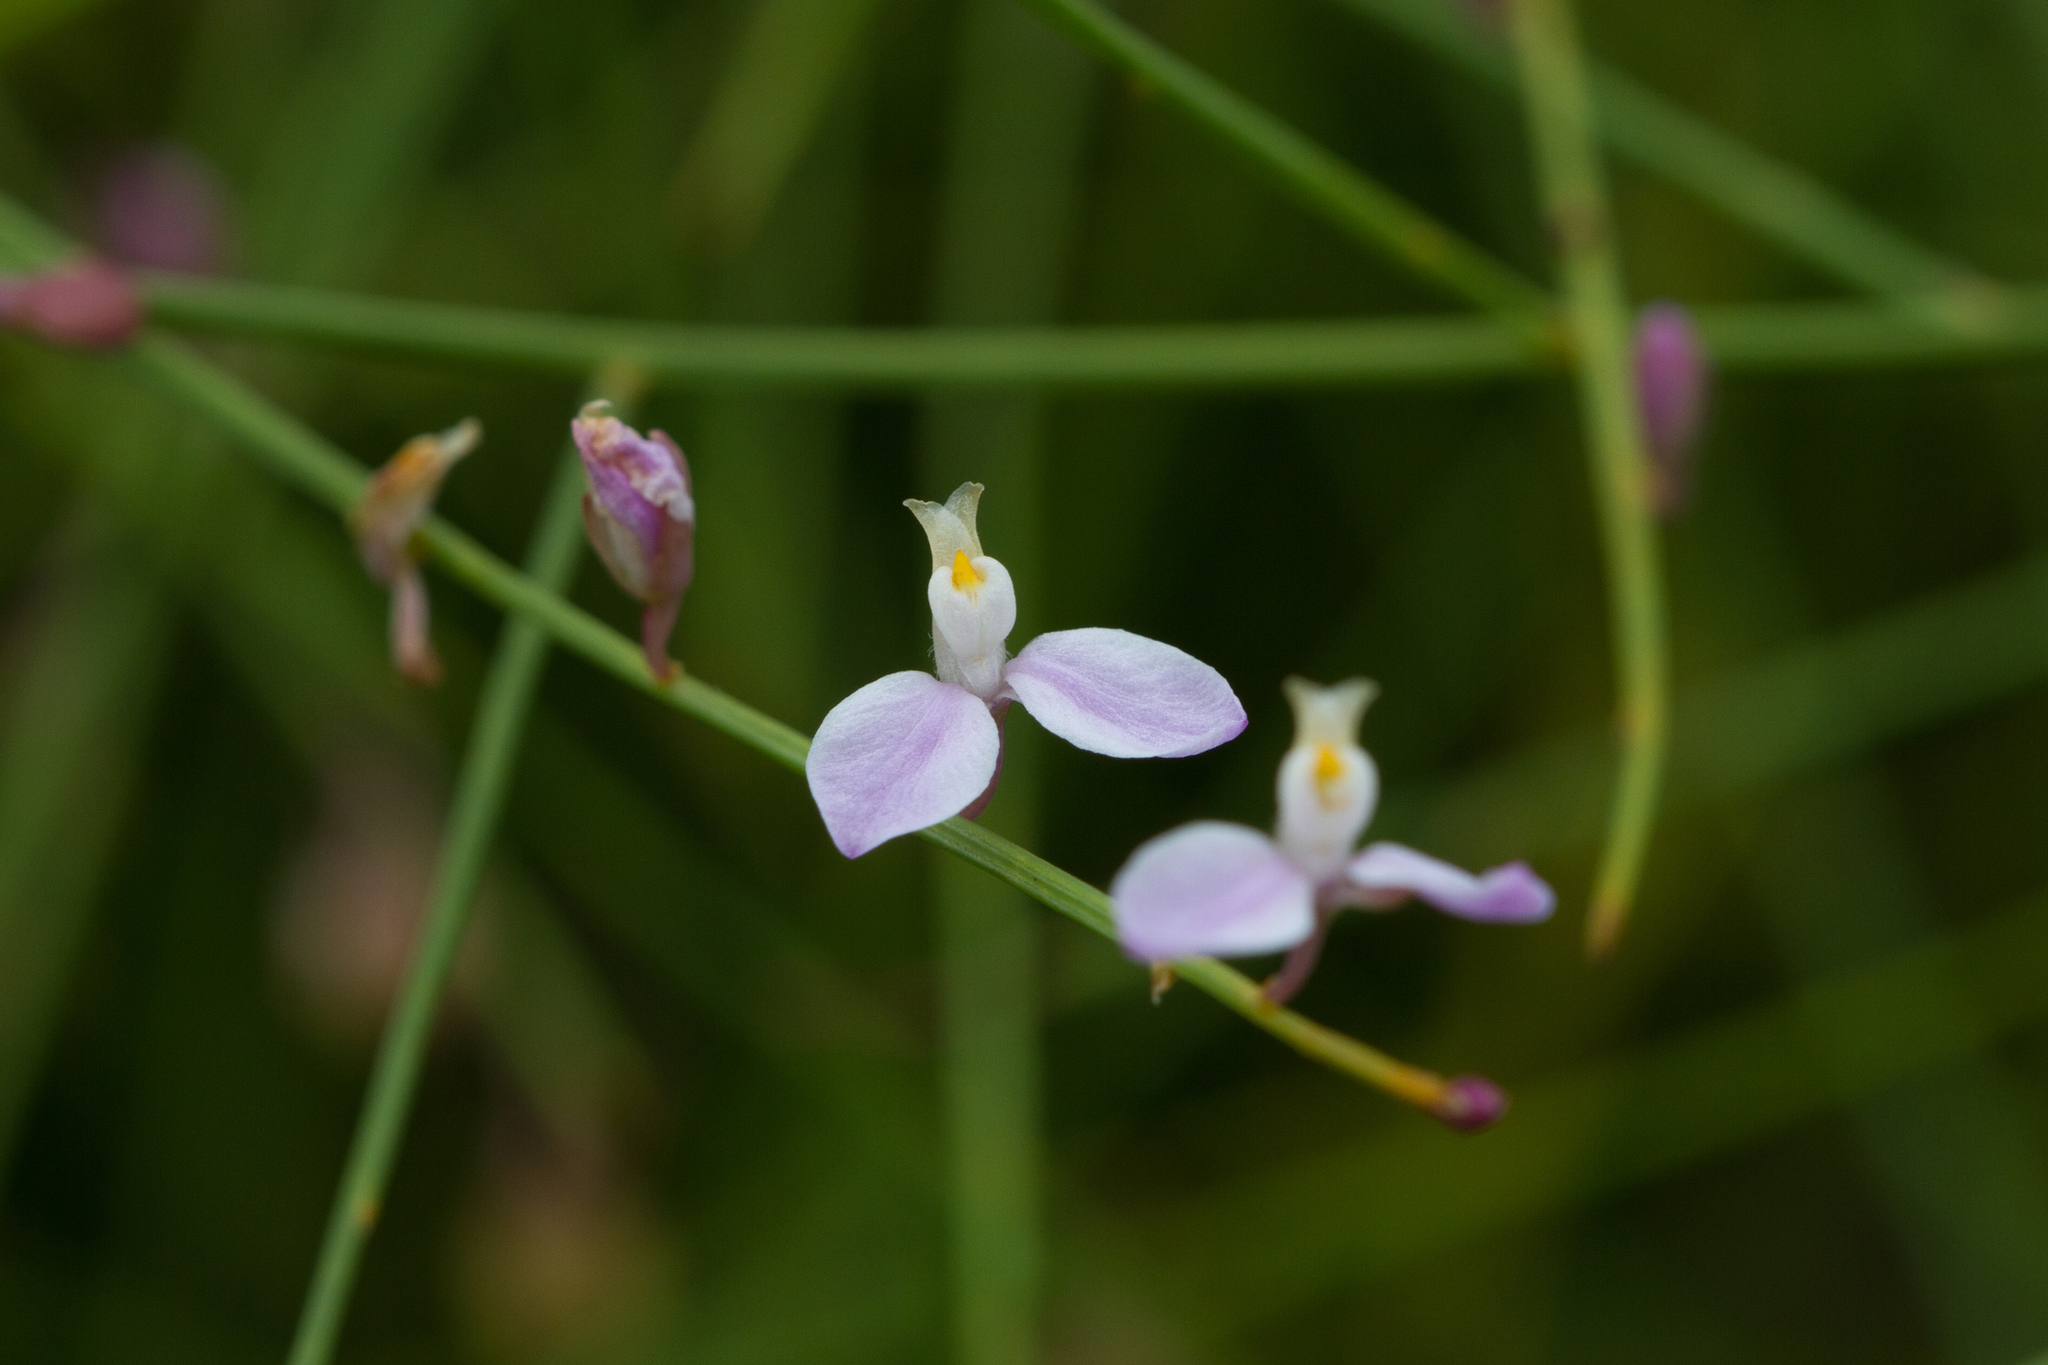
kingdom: Plantae
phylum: Tracheophyta
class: Magnoliopsida
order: Fabales
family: Polygalaceae
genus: Comesperma
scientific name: Comesperma aphyllum
